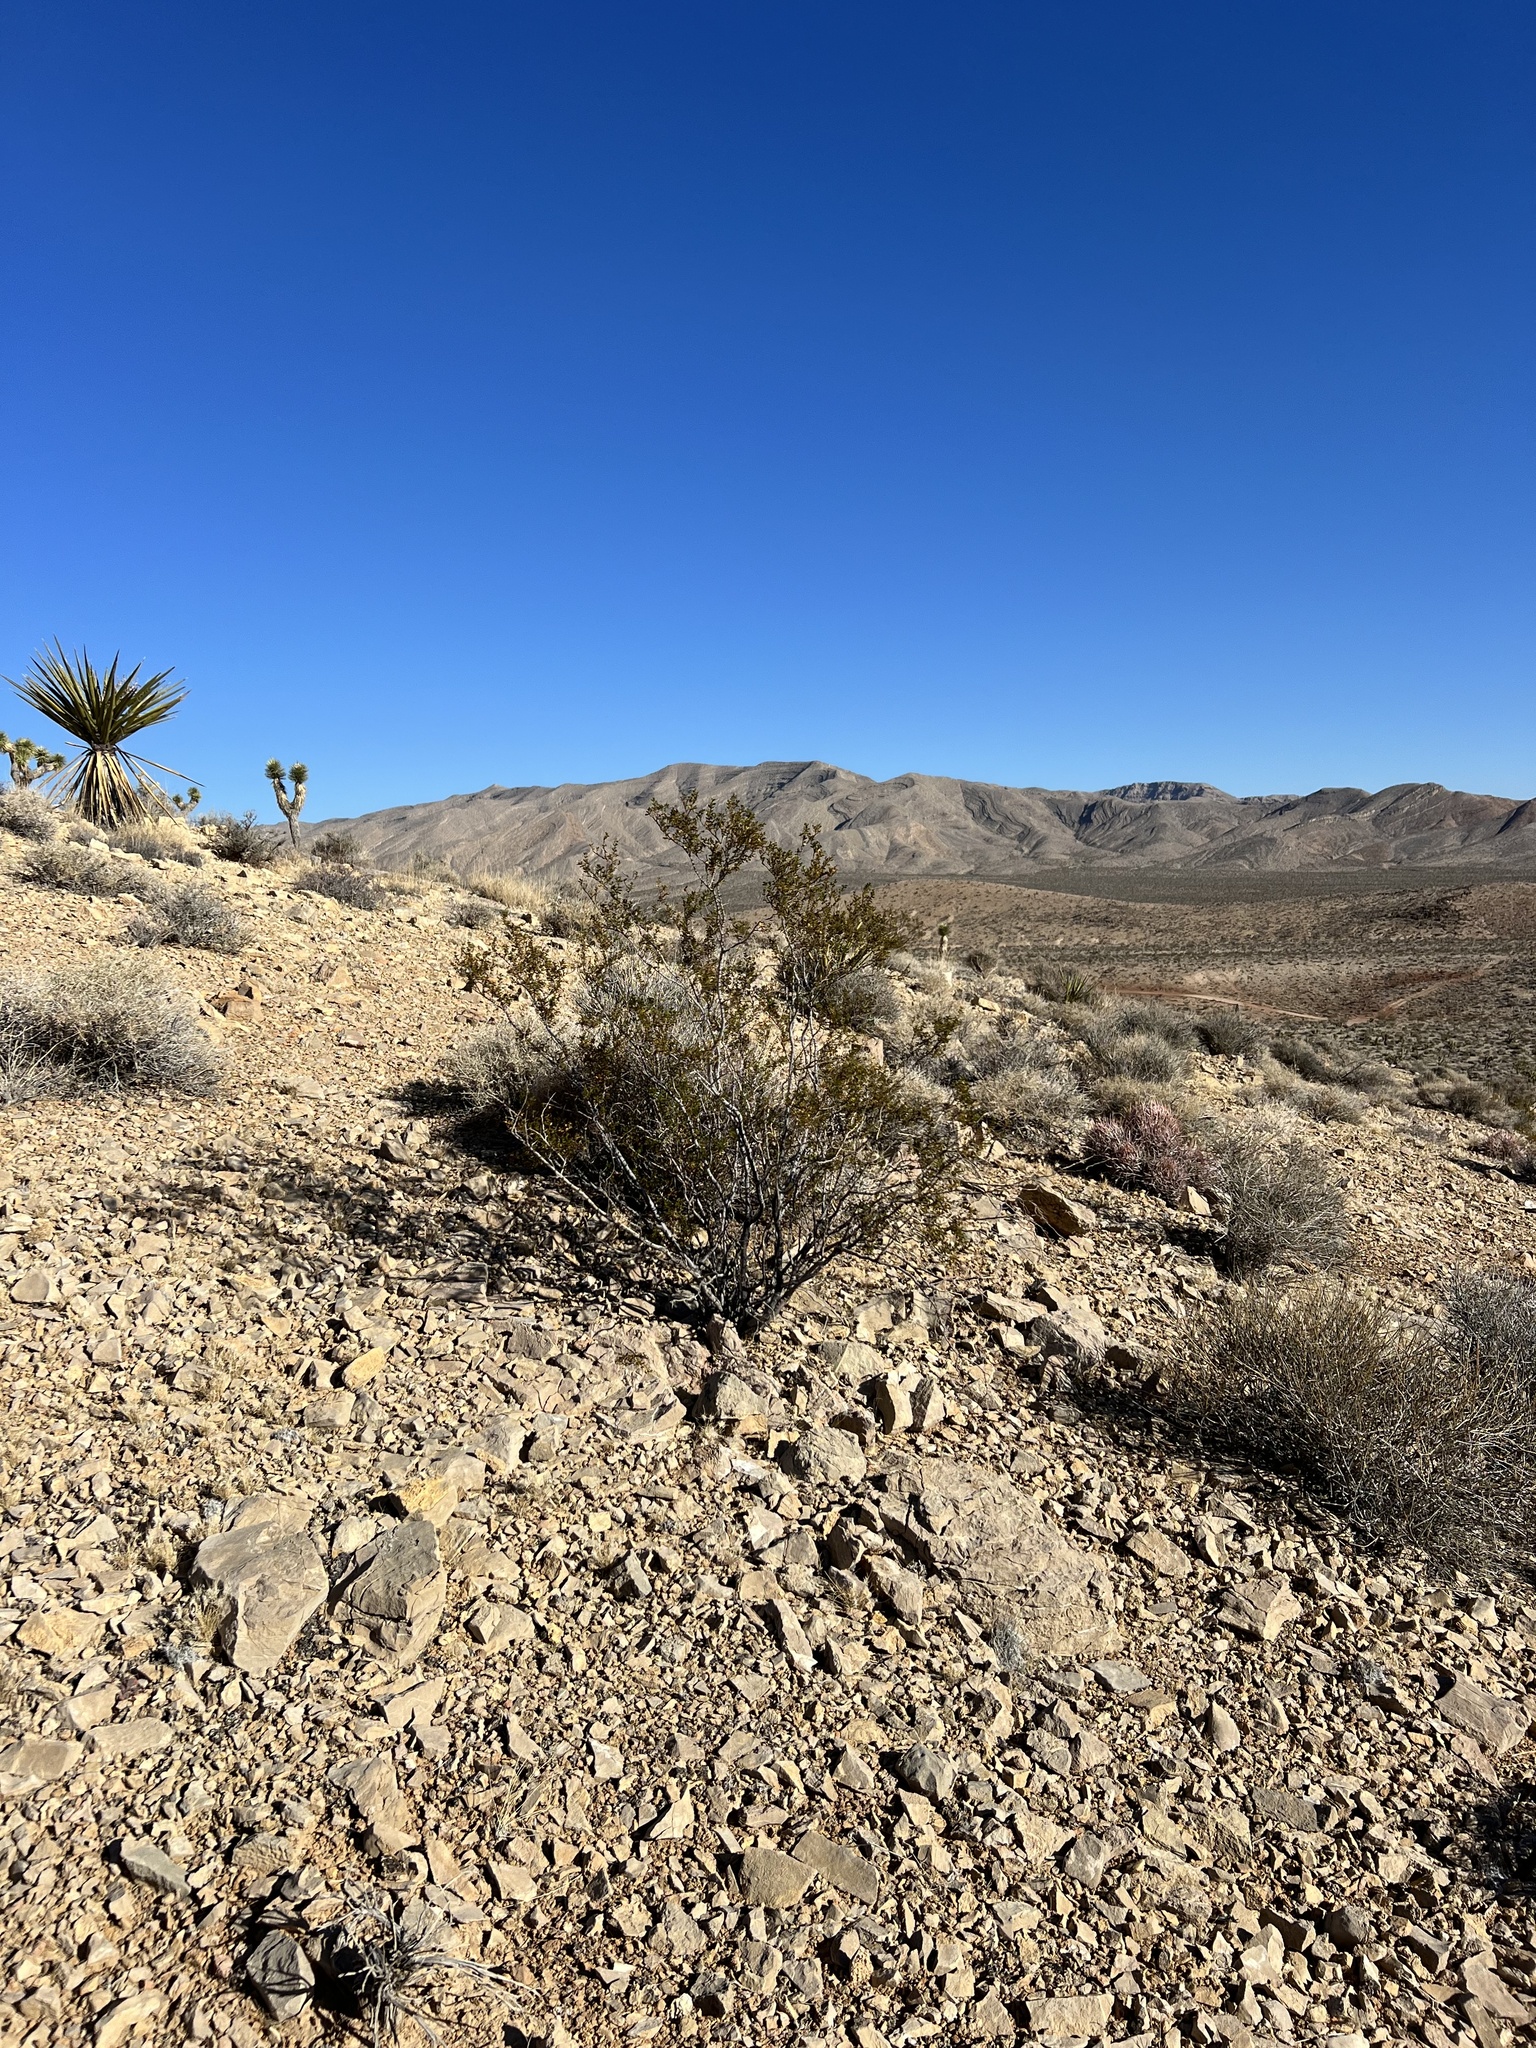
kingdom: Plantae
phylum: Tracheophyta
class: Magnoliopsida
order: Zygophyllales
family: Zygophyllaceae
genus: Larrea
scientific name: Larrea tridentata
